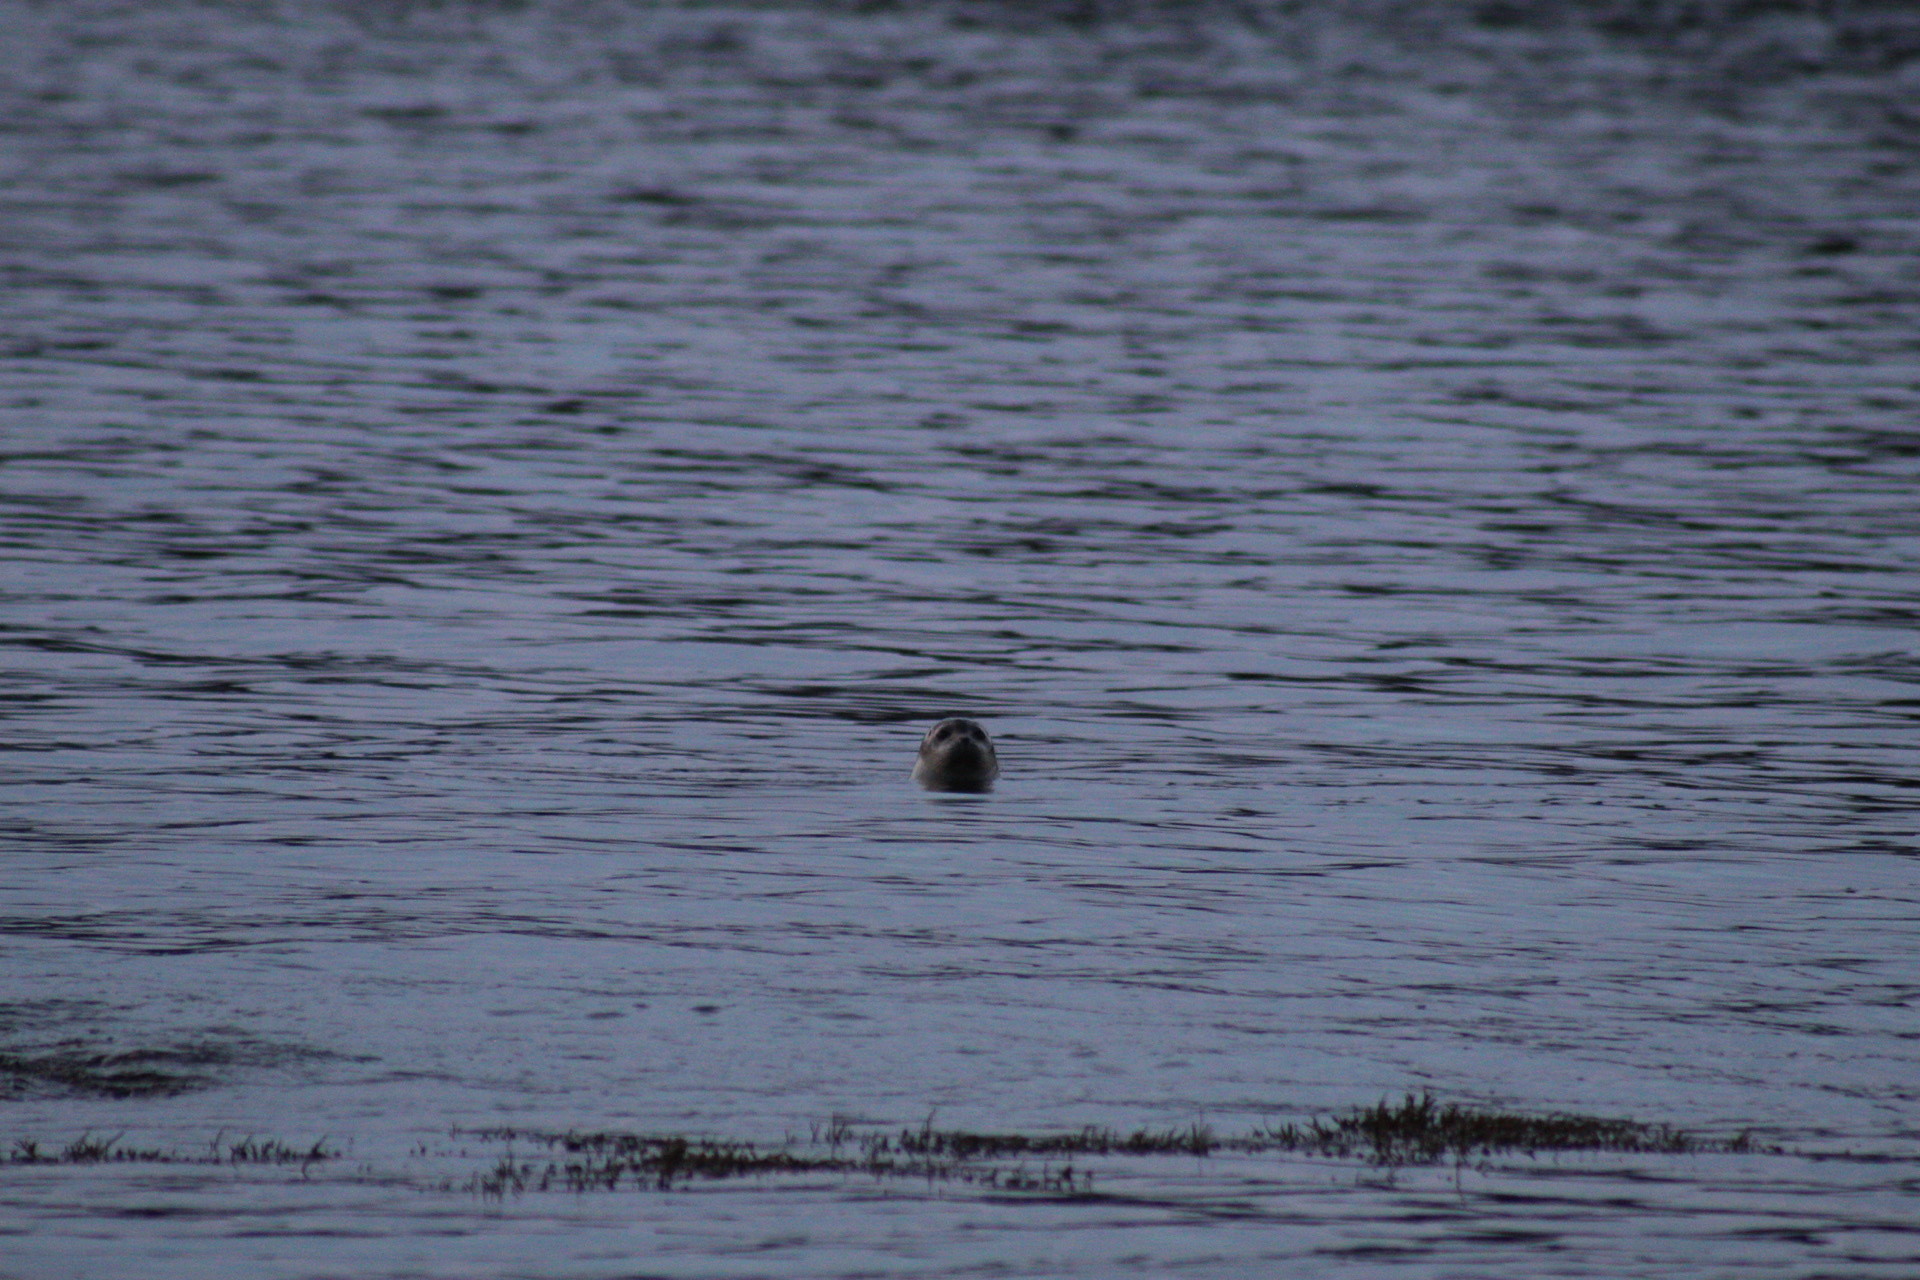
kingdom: Animalia
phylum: Chordata
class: Mammalia
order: Carnivora
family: Phocidae
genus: Phoca
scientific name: Phoca vitulina
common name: Harbor seal
